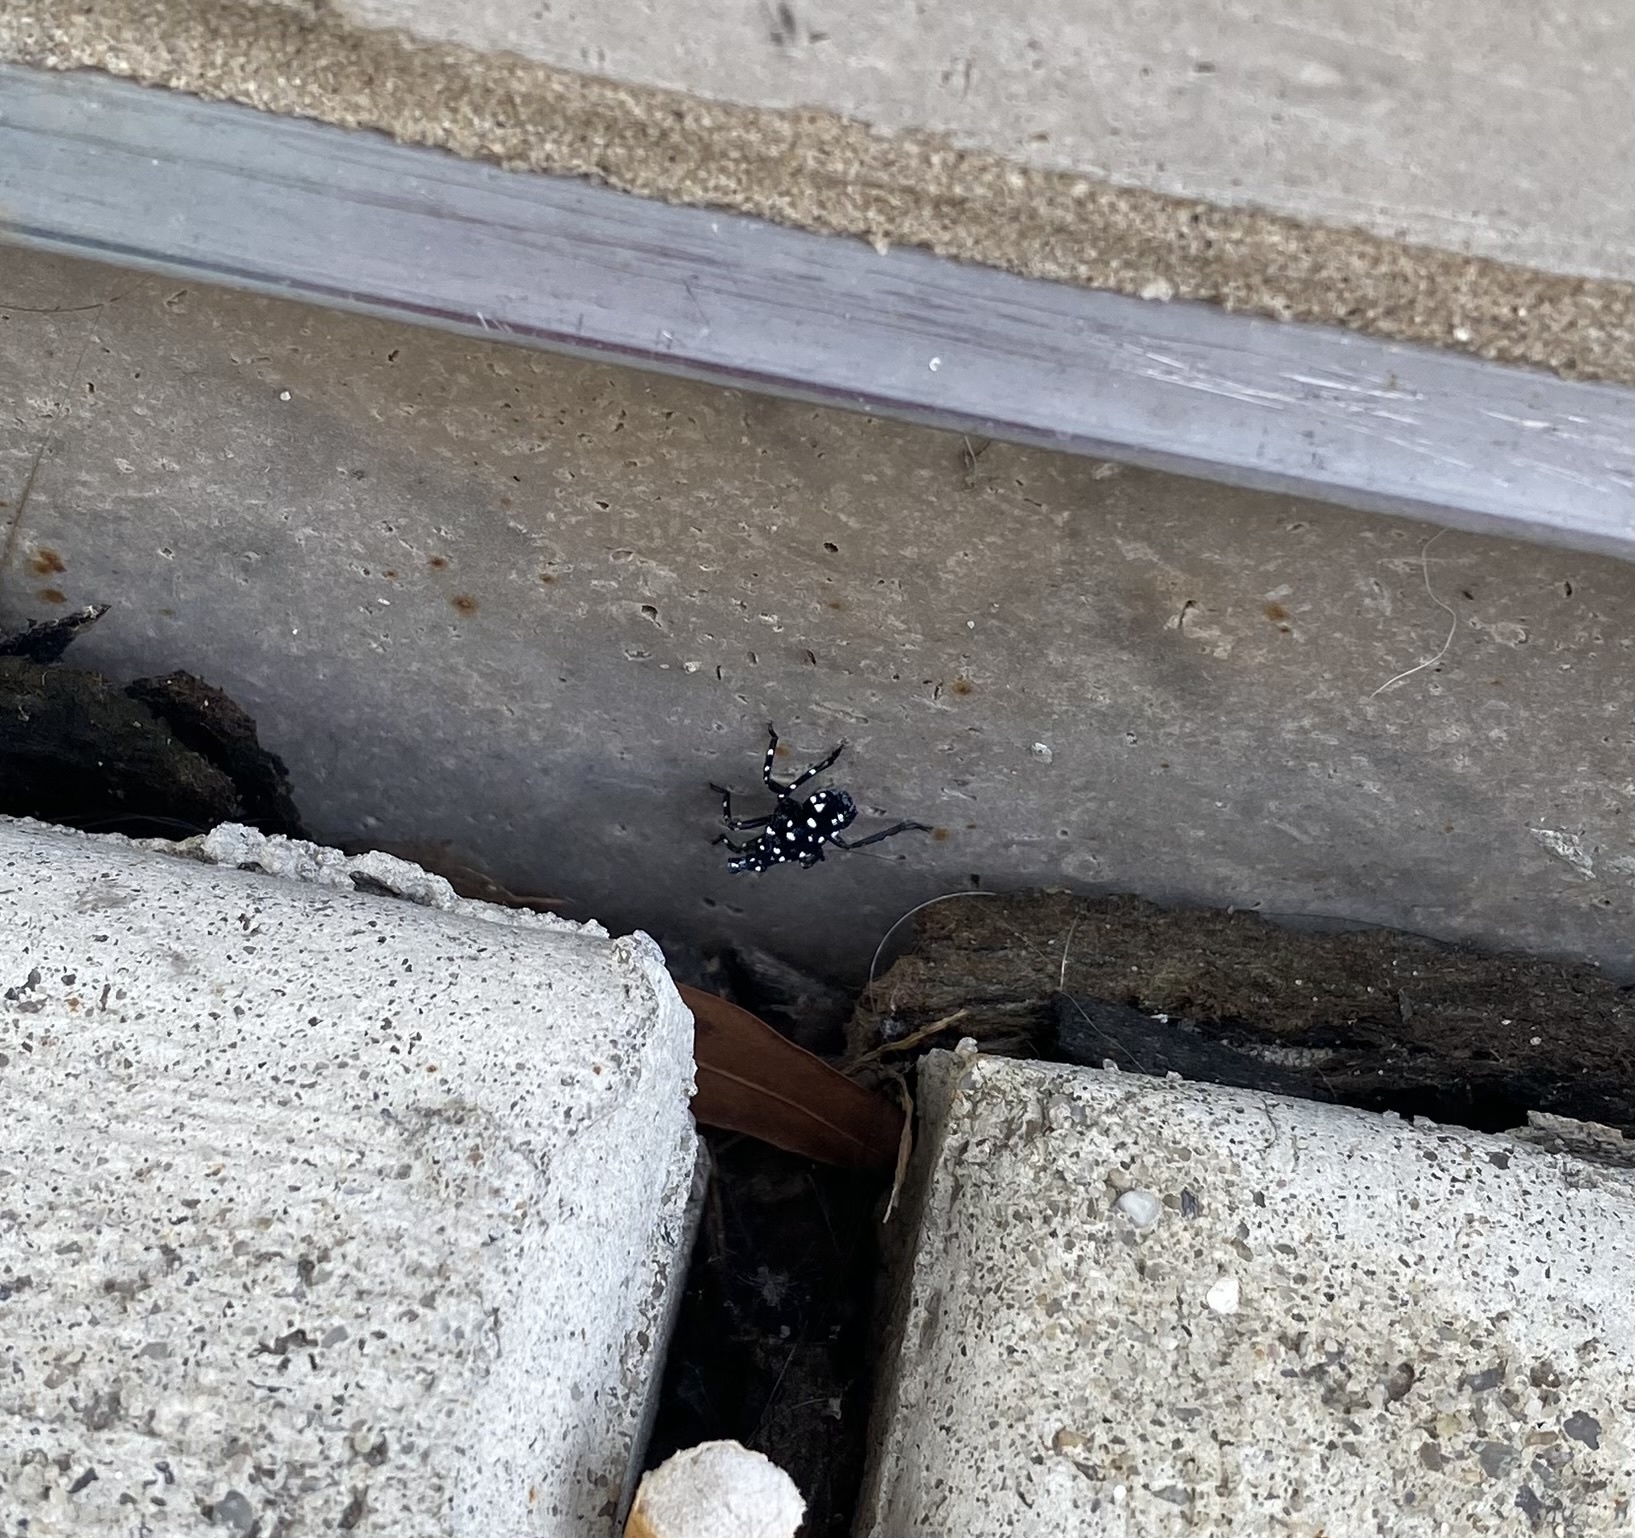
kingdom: Animalia
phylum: Arthropoda
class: Insecta
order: Hemiptera
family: Fulgoridae
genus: Lycorma
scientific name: Lycorma delicatula
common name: Spotted lanternfly
